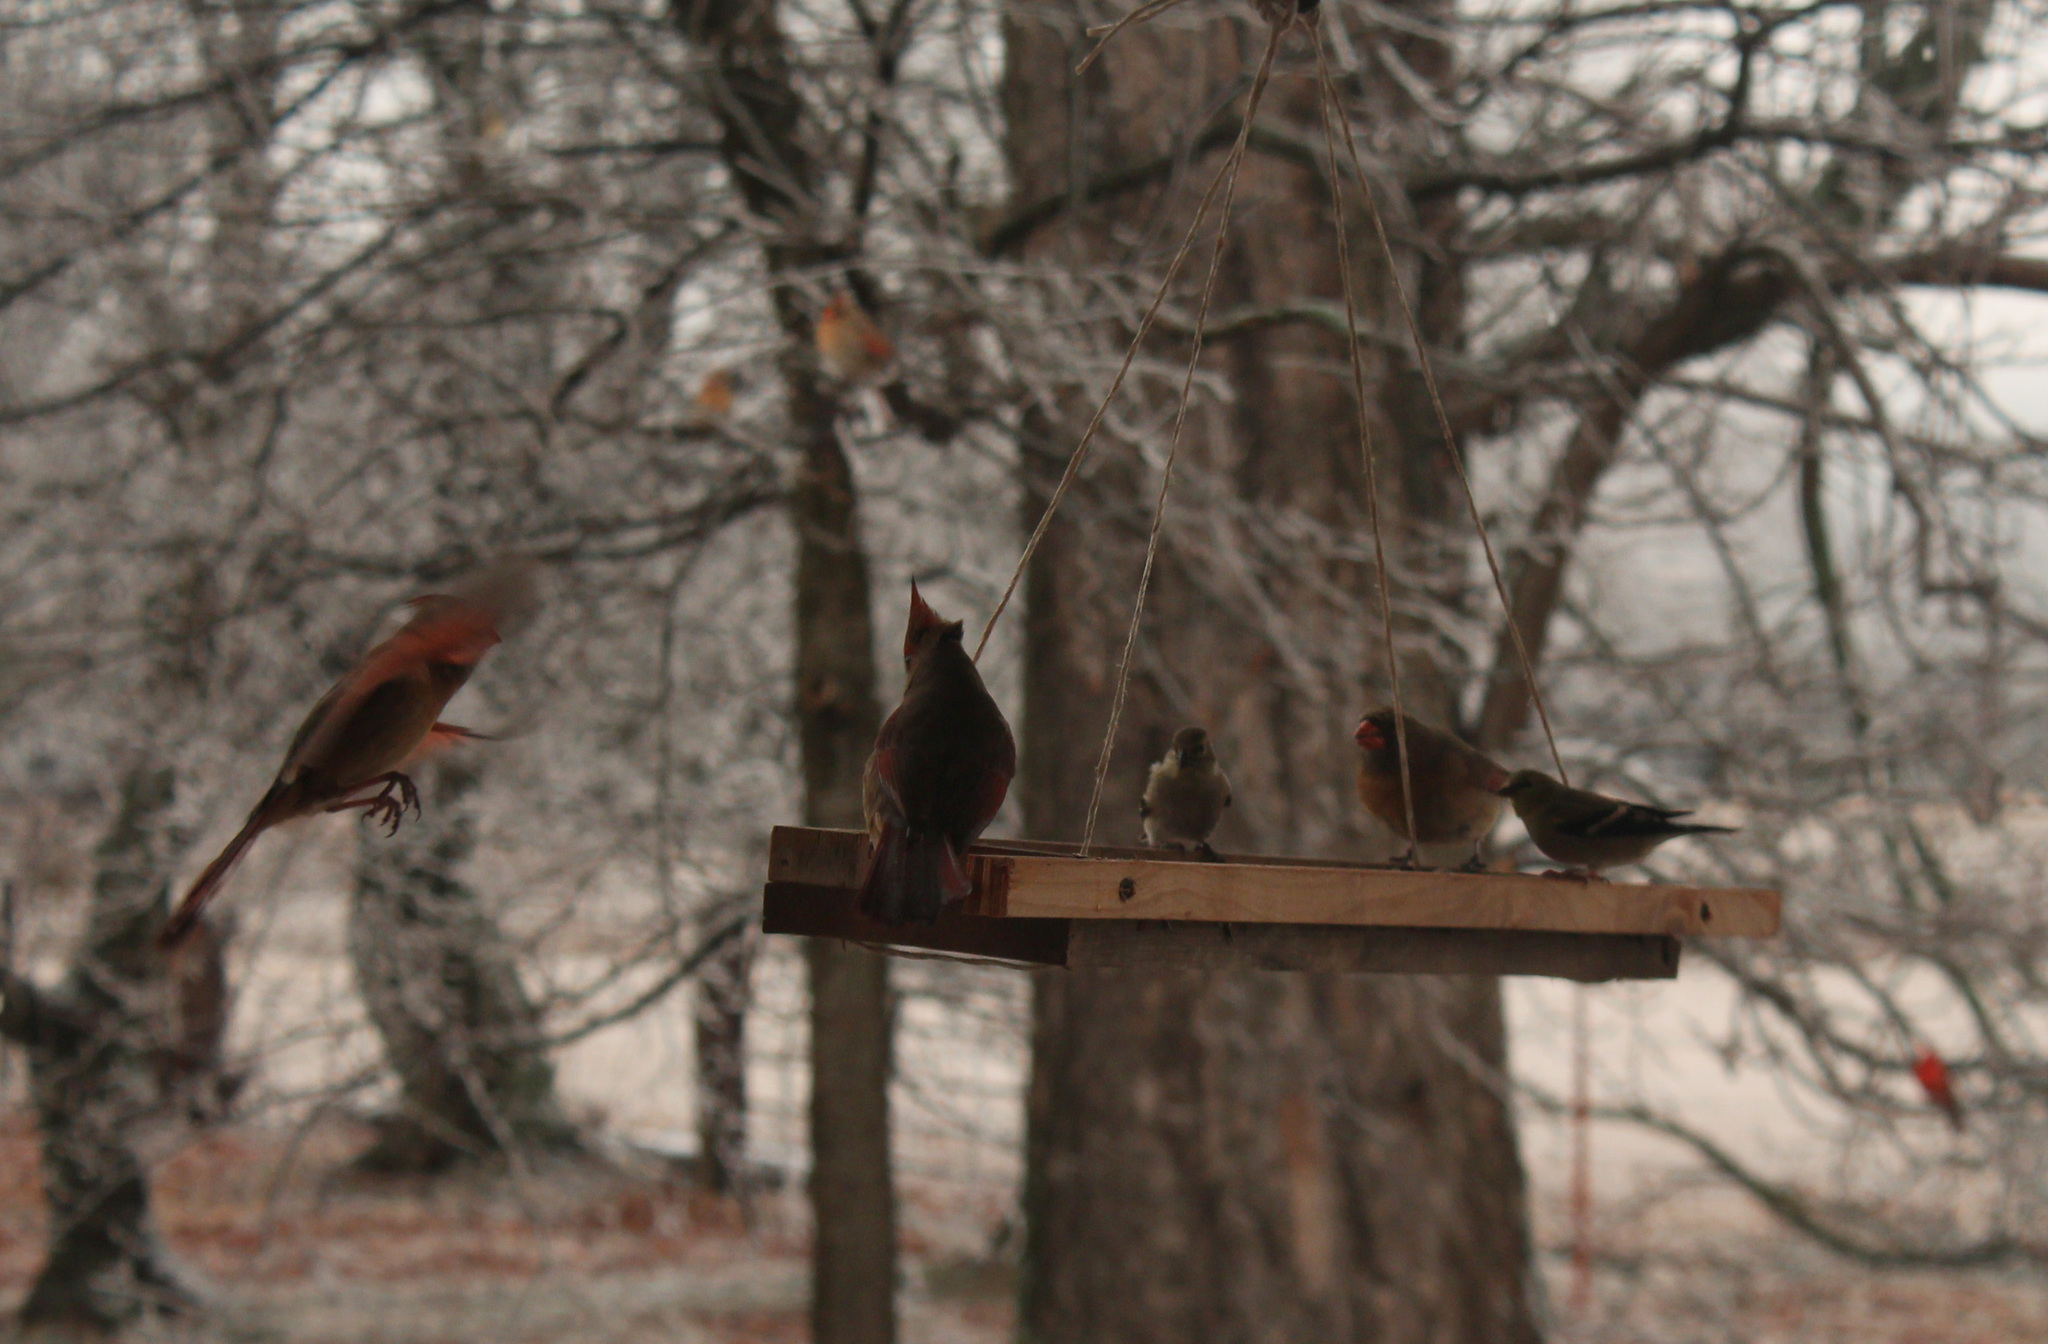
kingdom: Animalia
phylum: Chordata
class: Aves
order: Passeriformes
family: Cardinalidae
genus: Cardinalis
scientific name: Cardinalis cardinalis
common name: Northern cardinal
